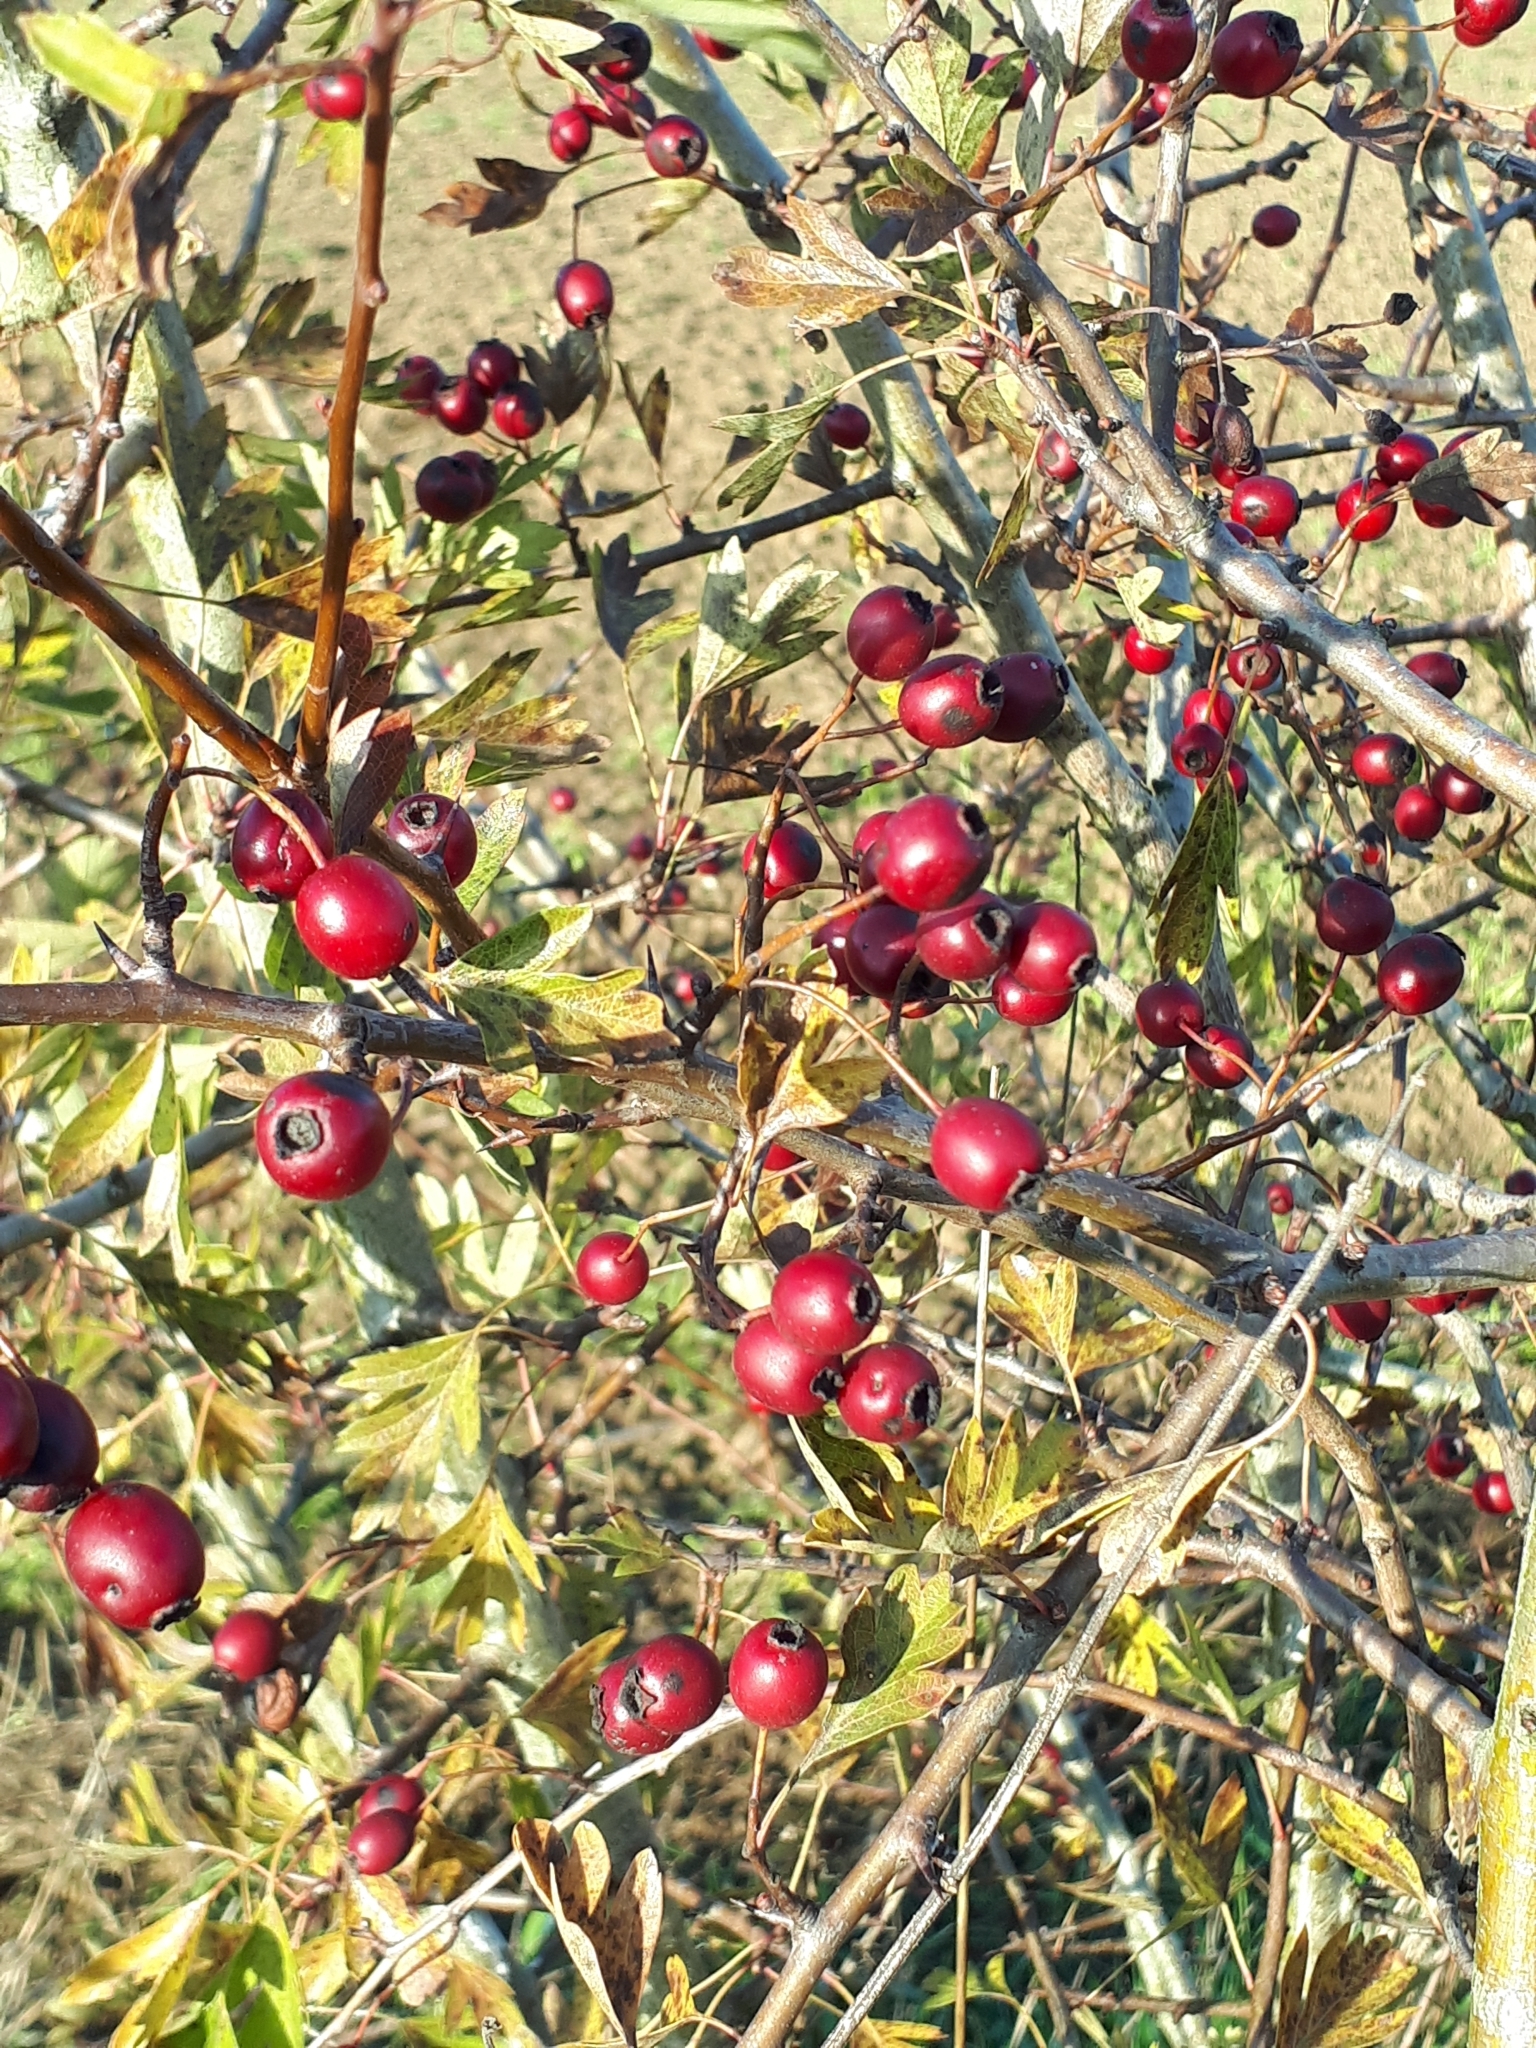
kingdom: Plantae
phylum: Tracheophyta
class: Magnoliopsida
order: Rosales
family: Rosaceae
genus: Crataegus
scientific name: Crataegus monogyna
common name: Hawthorn
